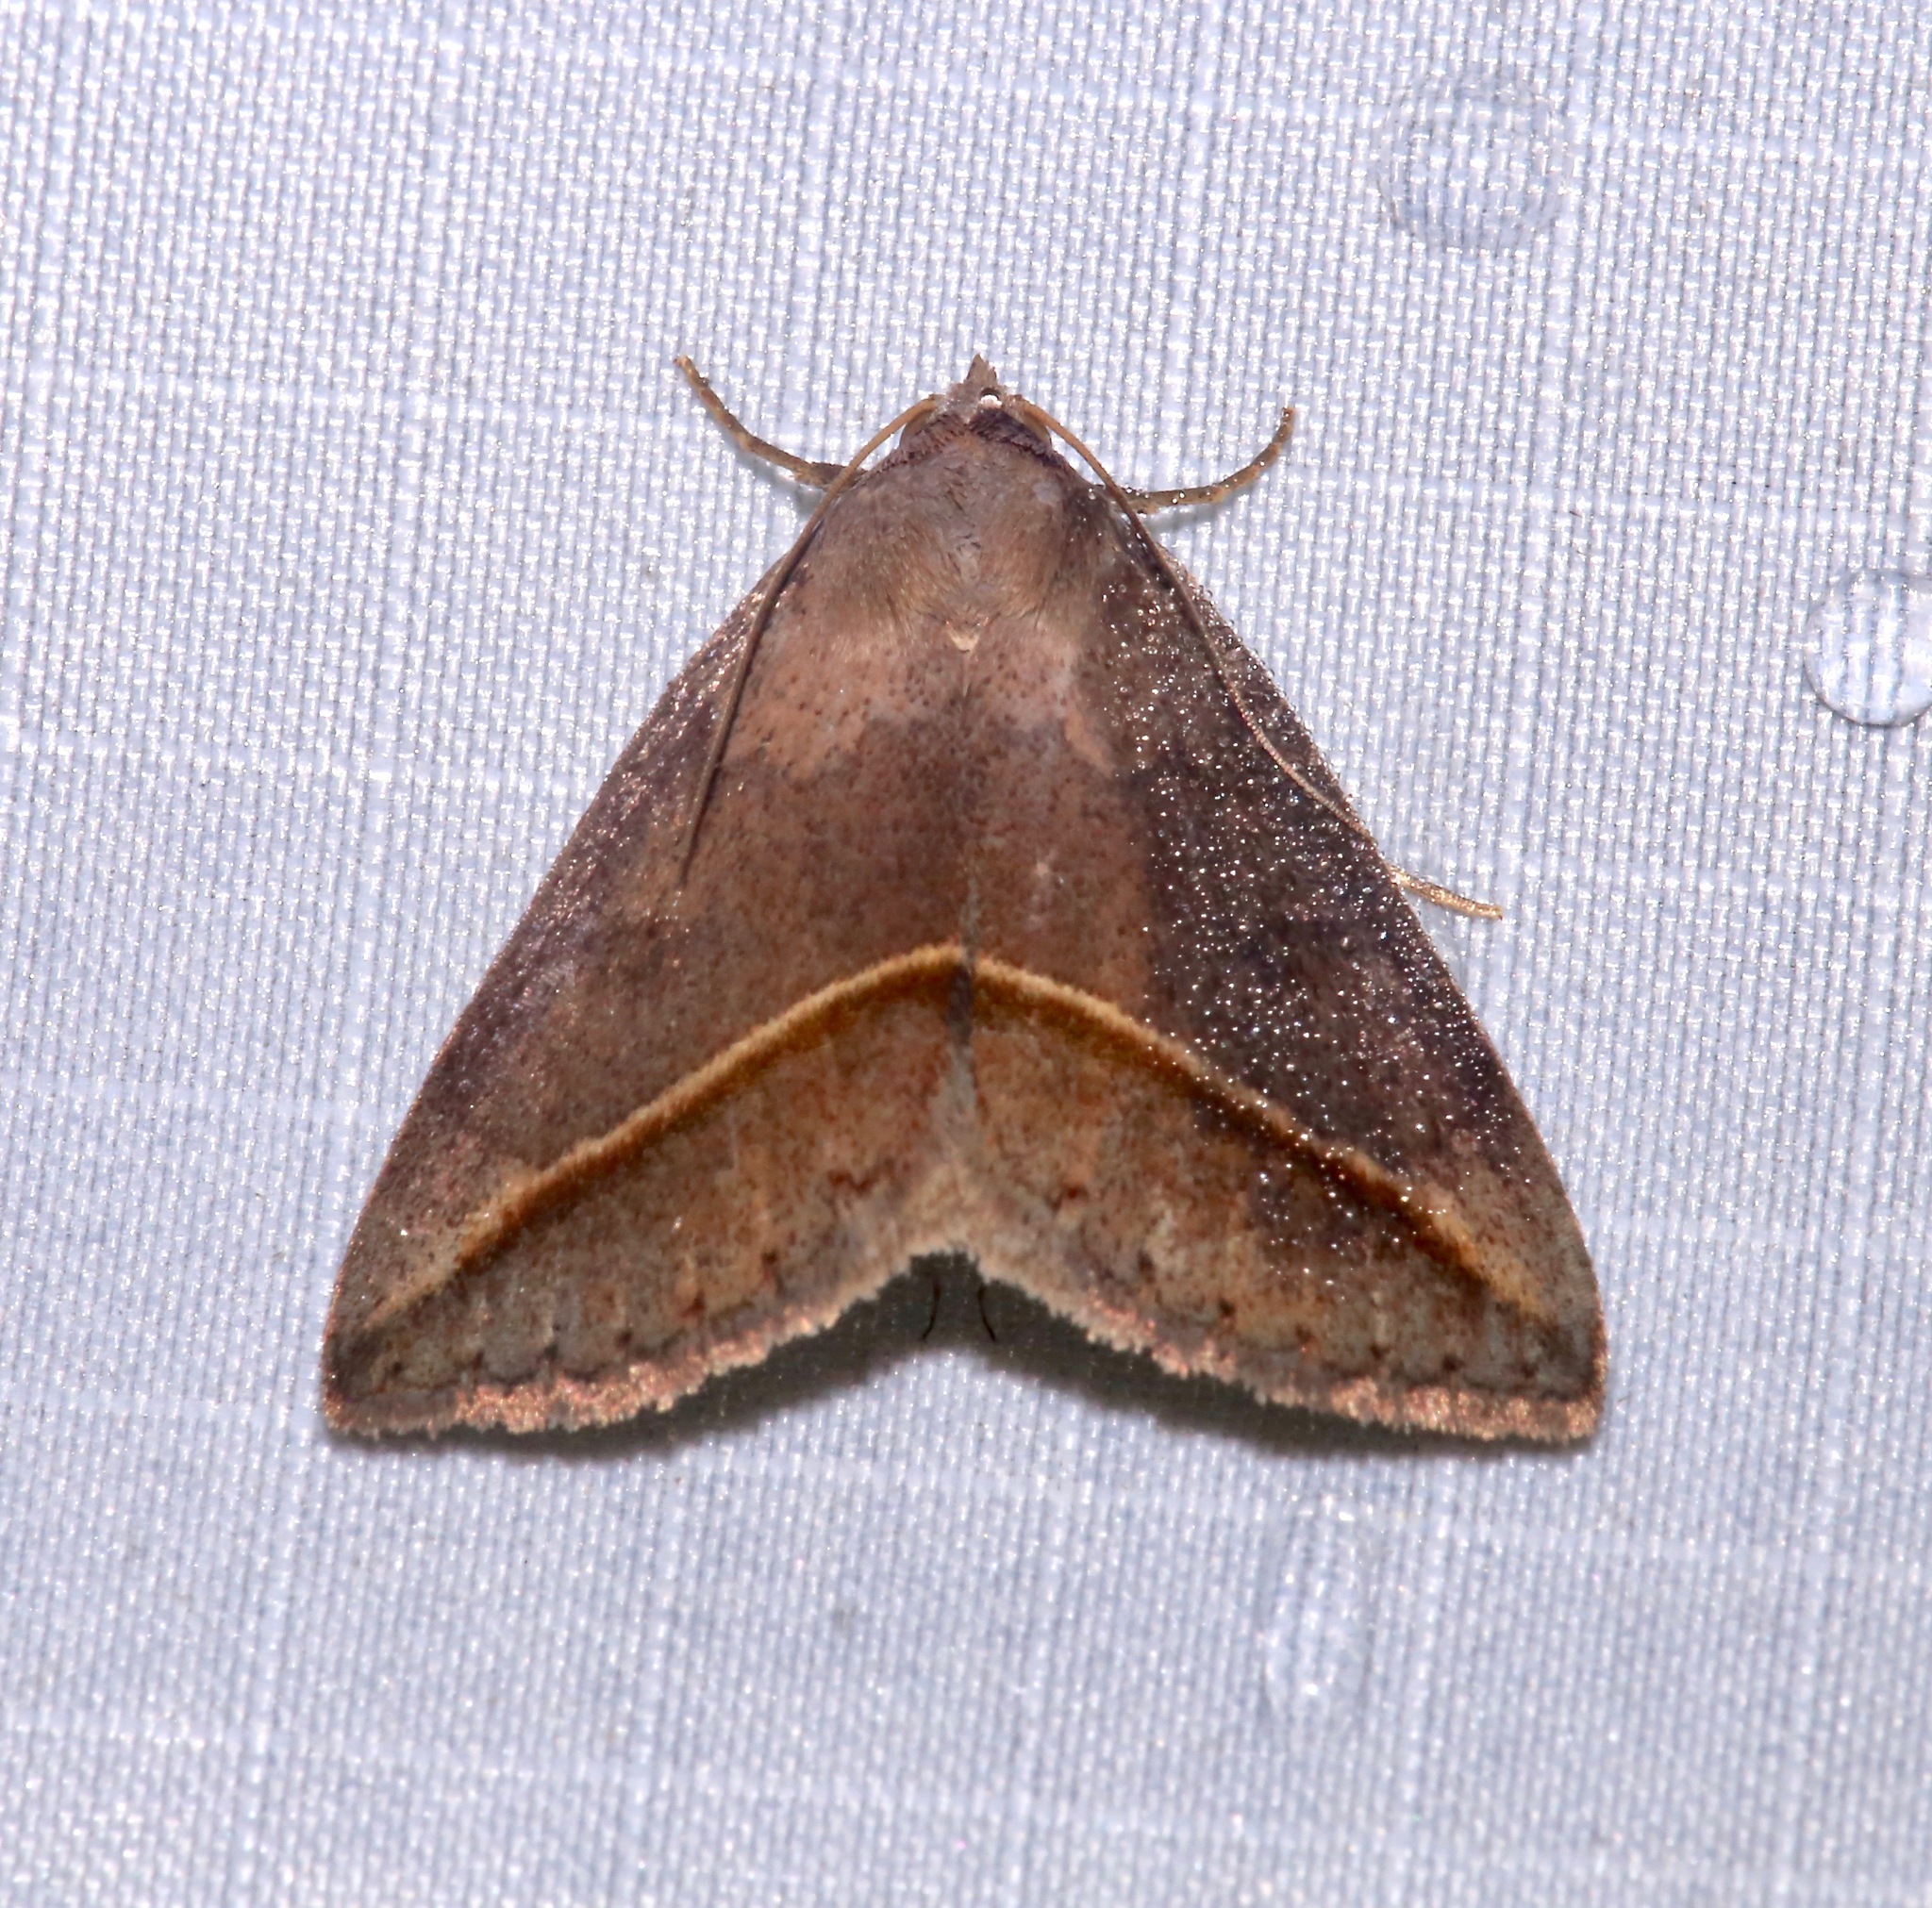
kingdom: Animalia
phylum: Arthropoda
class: Insecta
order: Lepidoptera
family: Erebidae
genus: Argyrostrotis
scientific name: Argyrostrotis flavistriaria
